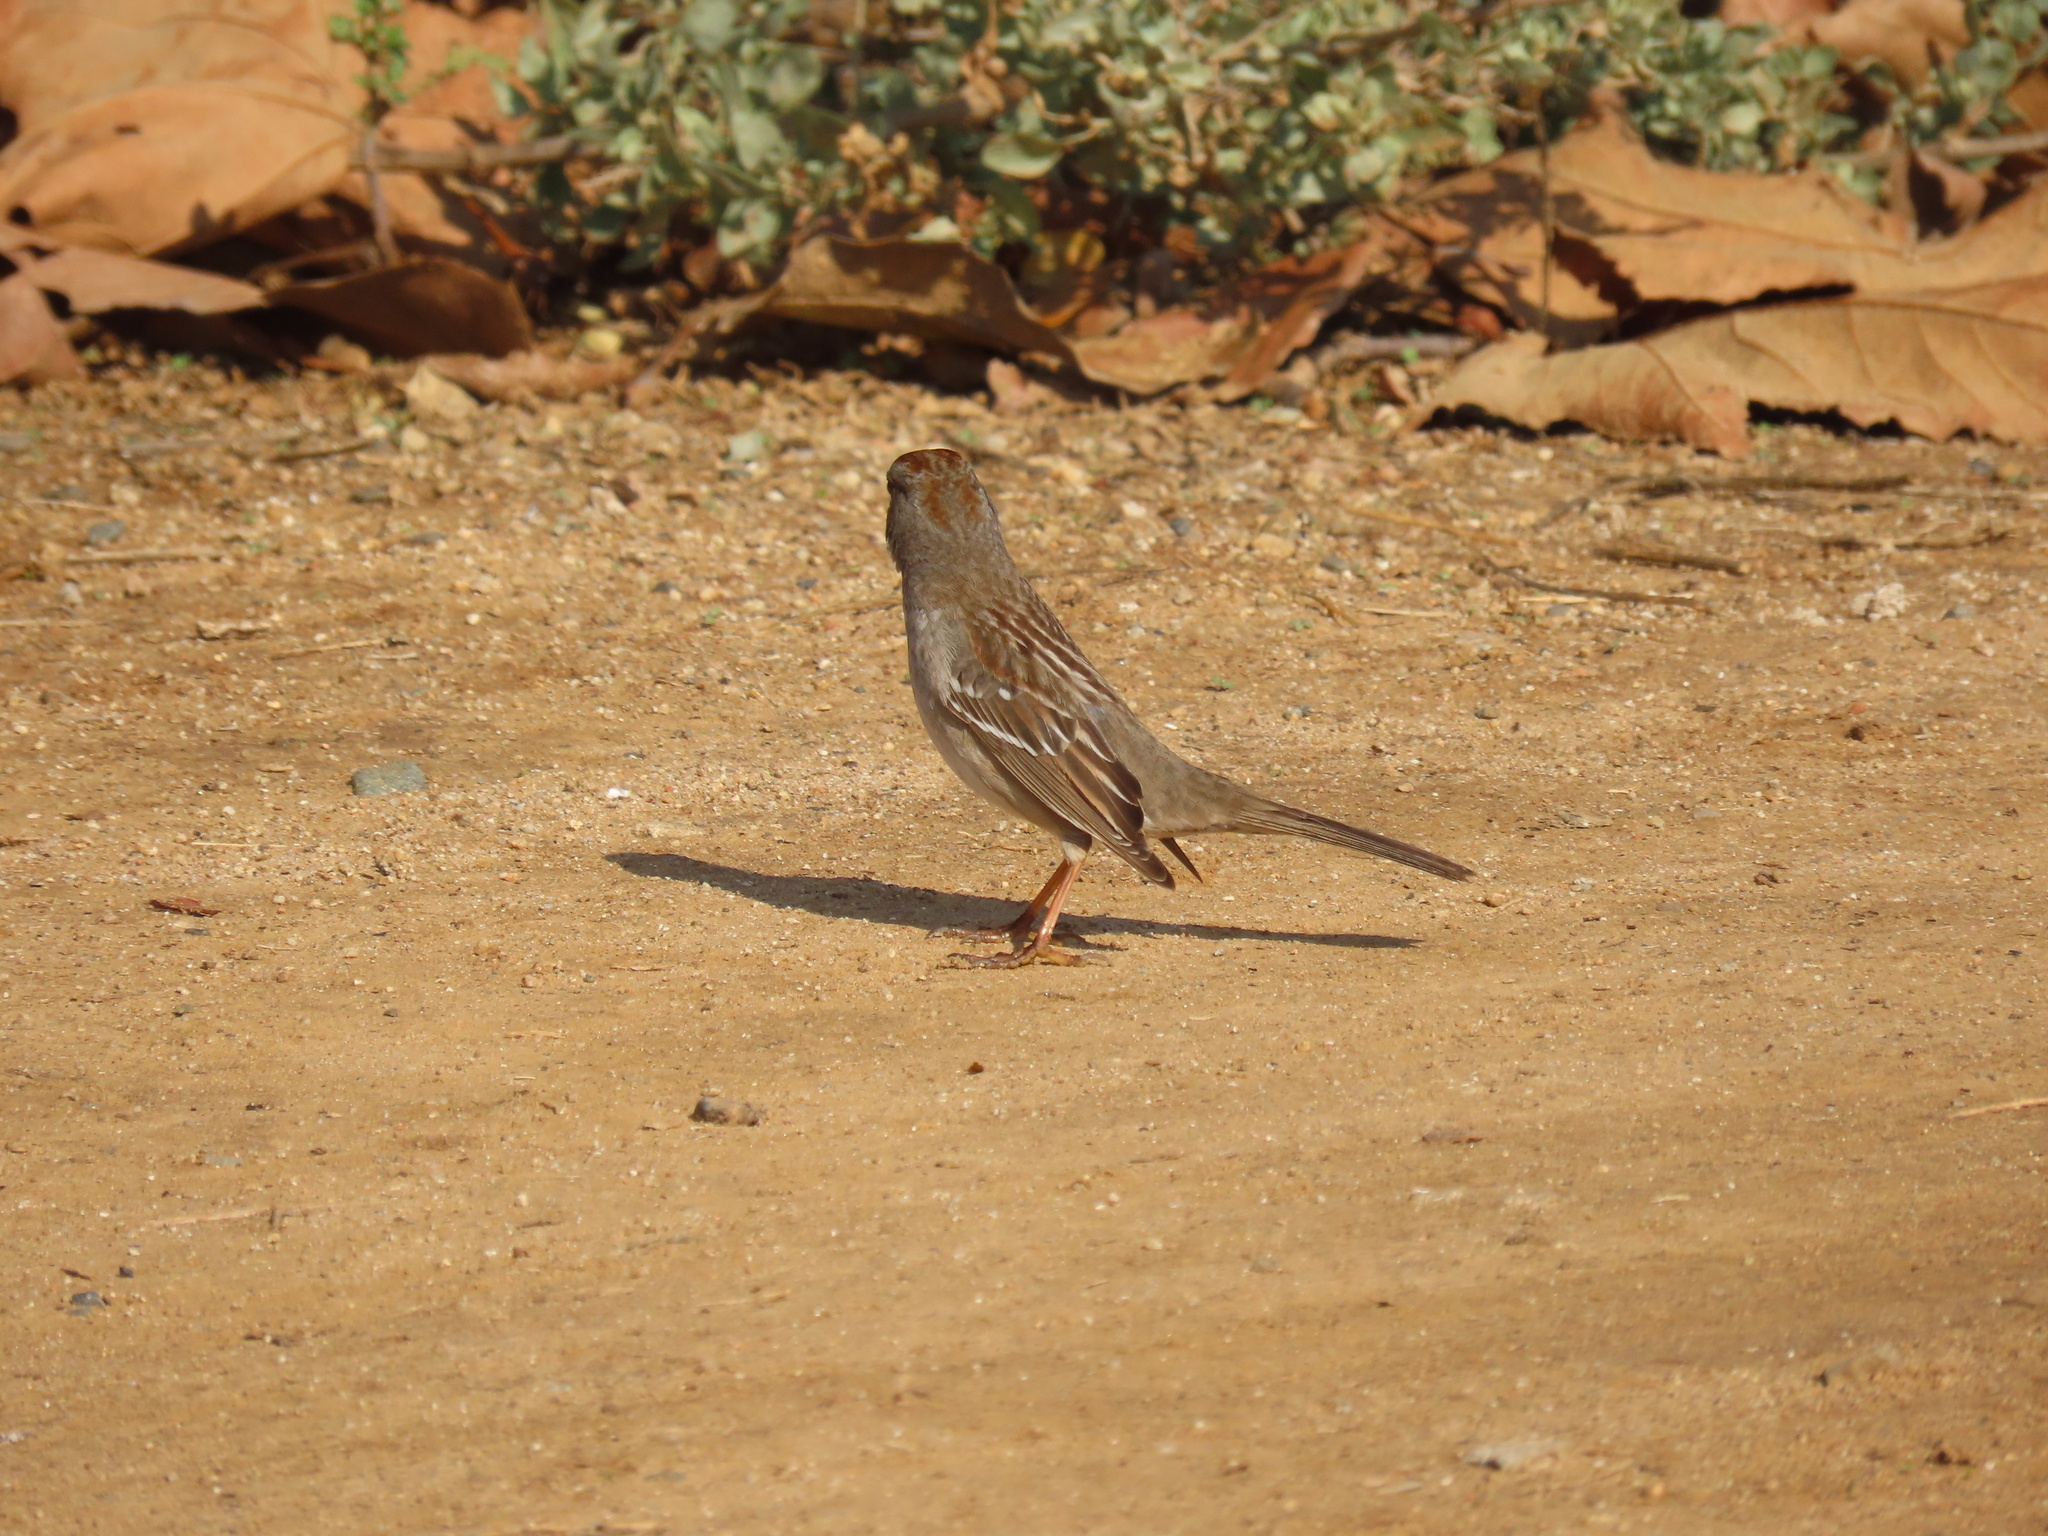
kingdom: Animalia
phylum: Chordata
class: Aves
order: Passeriformes
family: Passerellidae
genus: Zonotrichia
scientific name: Zonotrichia leucophrys
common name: White-crowned sparrow
